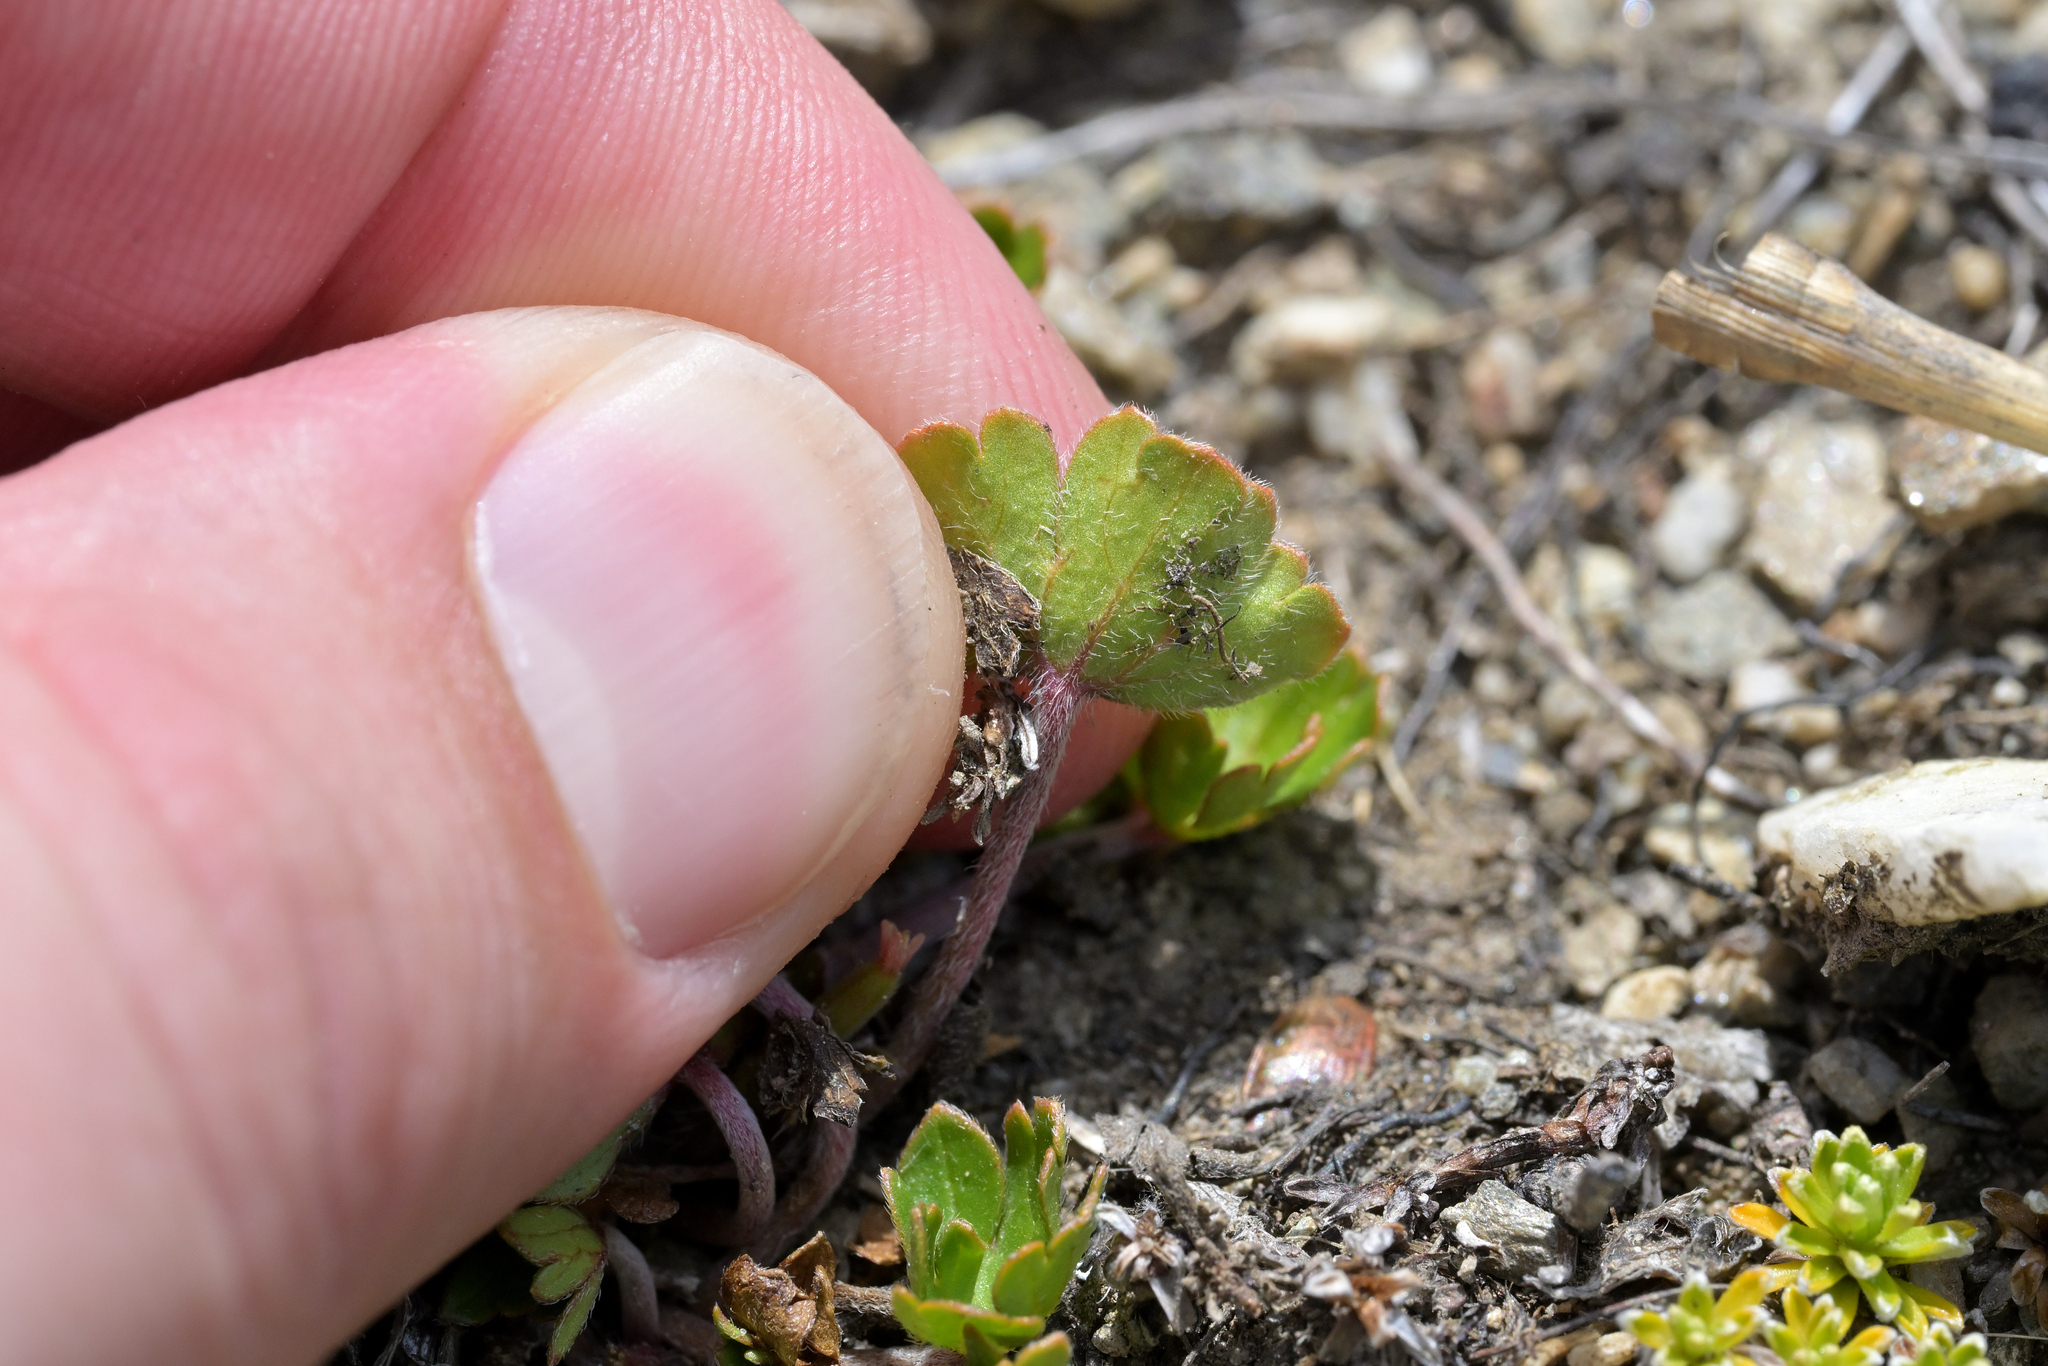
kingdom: Plantae
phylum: Tracheophyta
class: Magnoliopsida
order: Geraniales
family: Geraniaceae
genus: Geranium
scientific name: Geranium brevicaule
